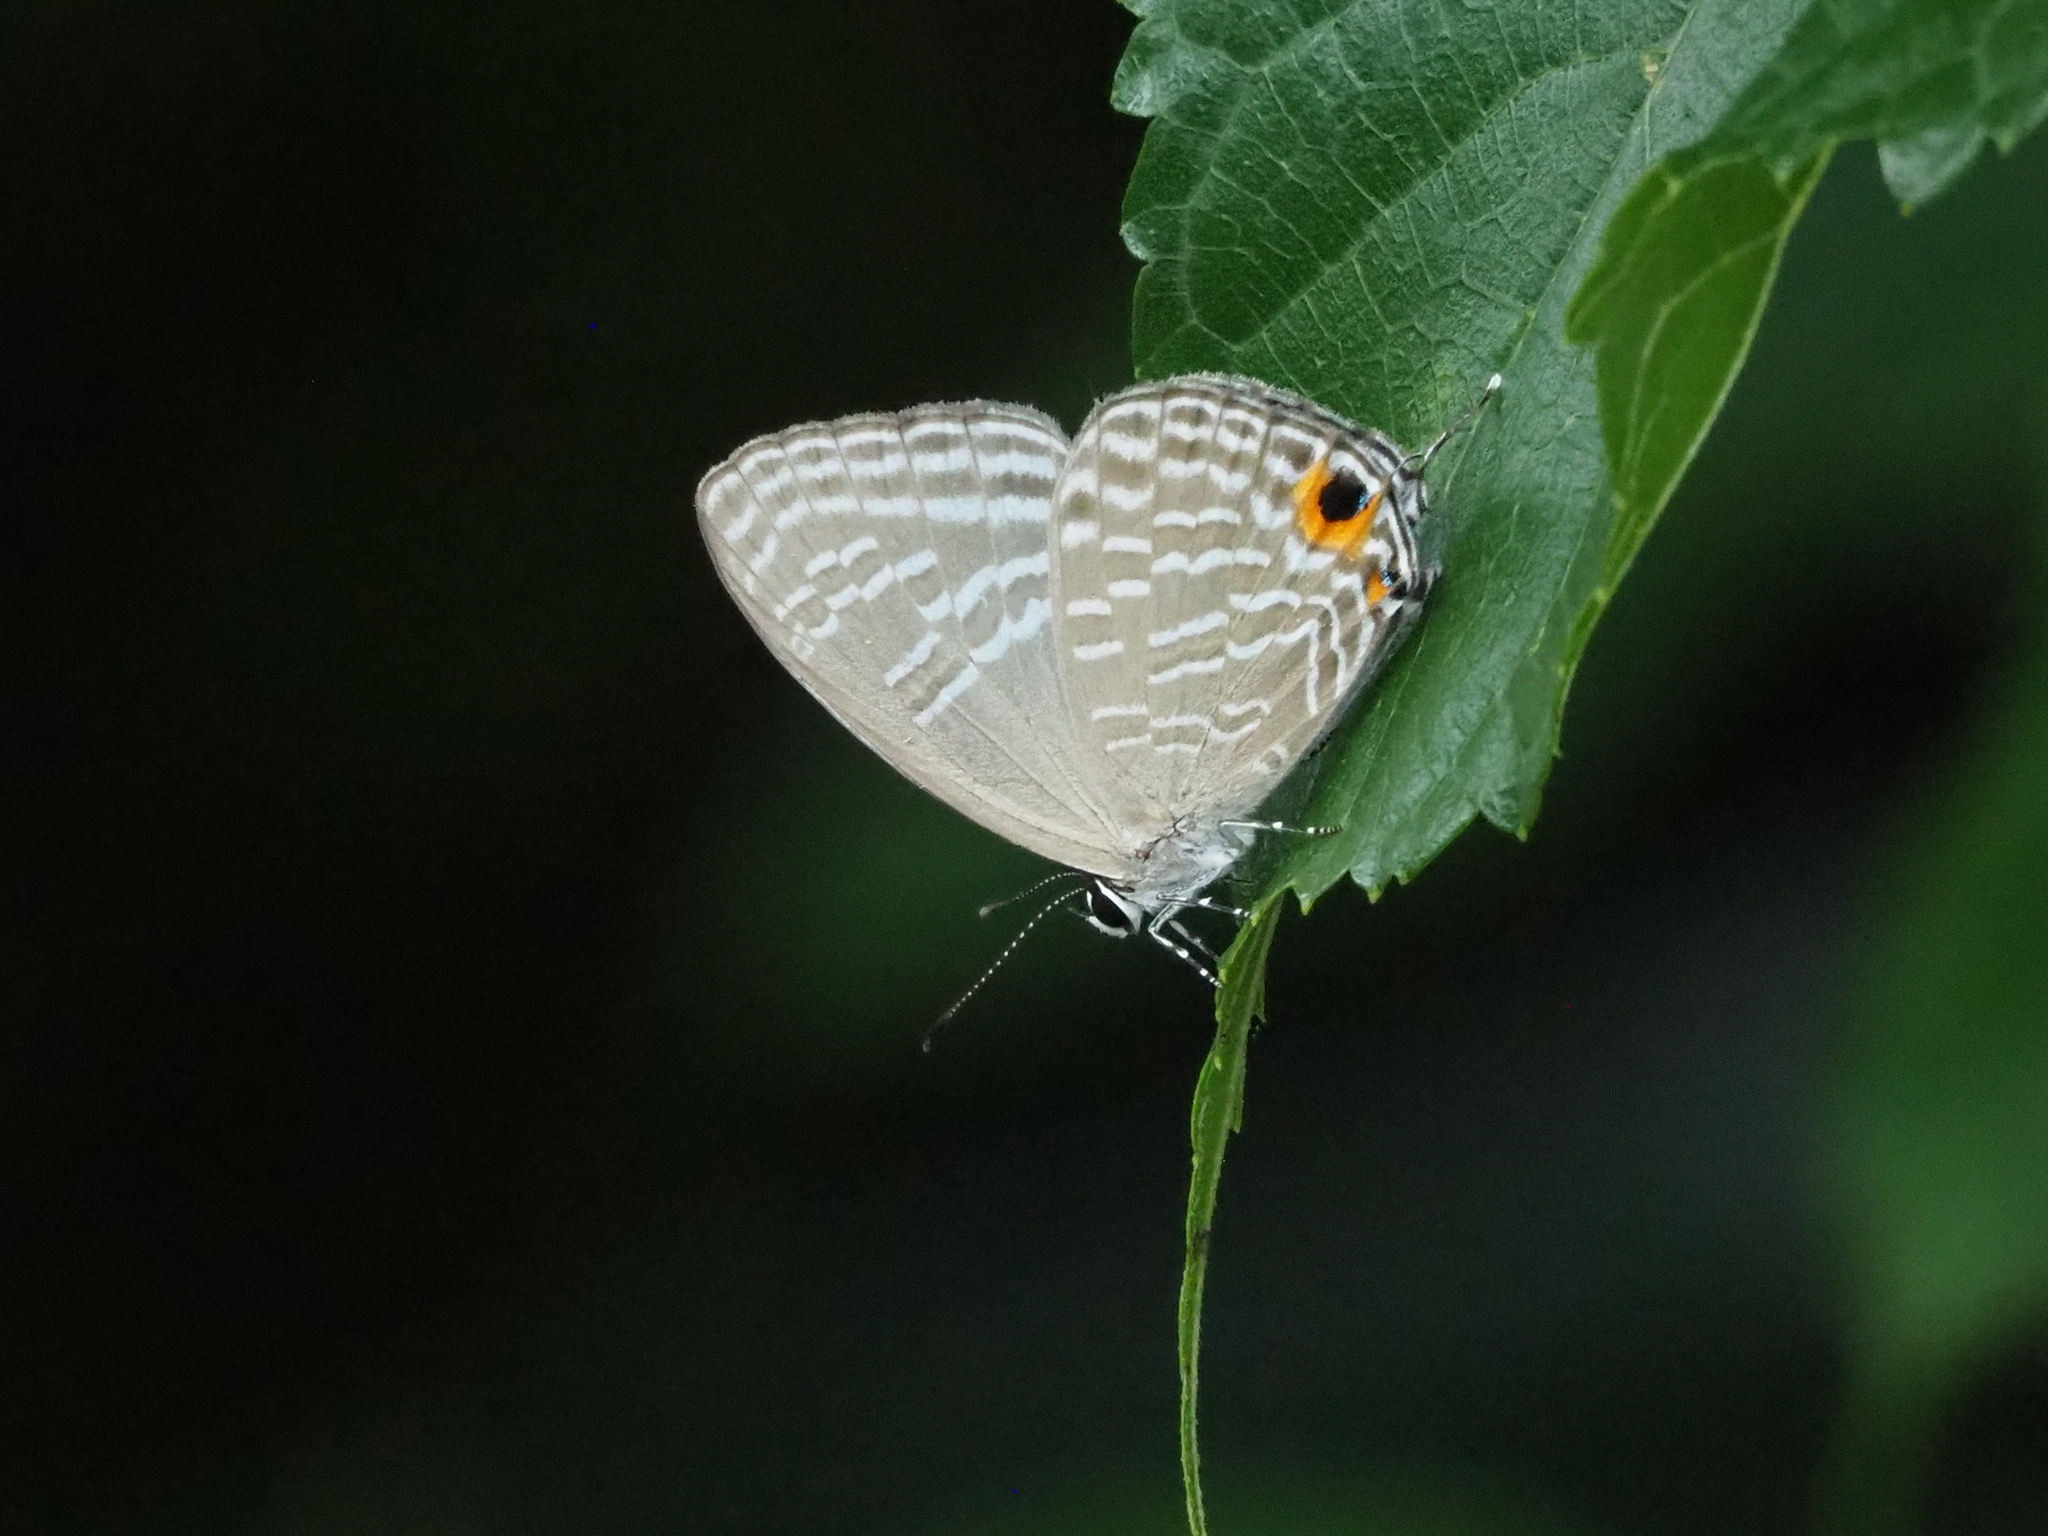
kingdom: Animalia
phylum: Arthropoda
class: Insecta
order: Lepidoptera
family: Lycaenidae
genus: Jamides
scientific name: Jamides alecto
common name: Metallic cerulean
